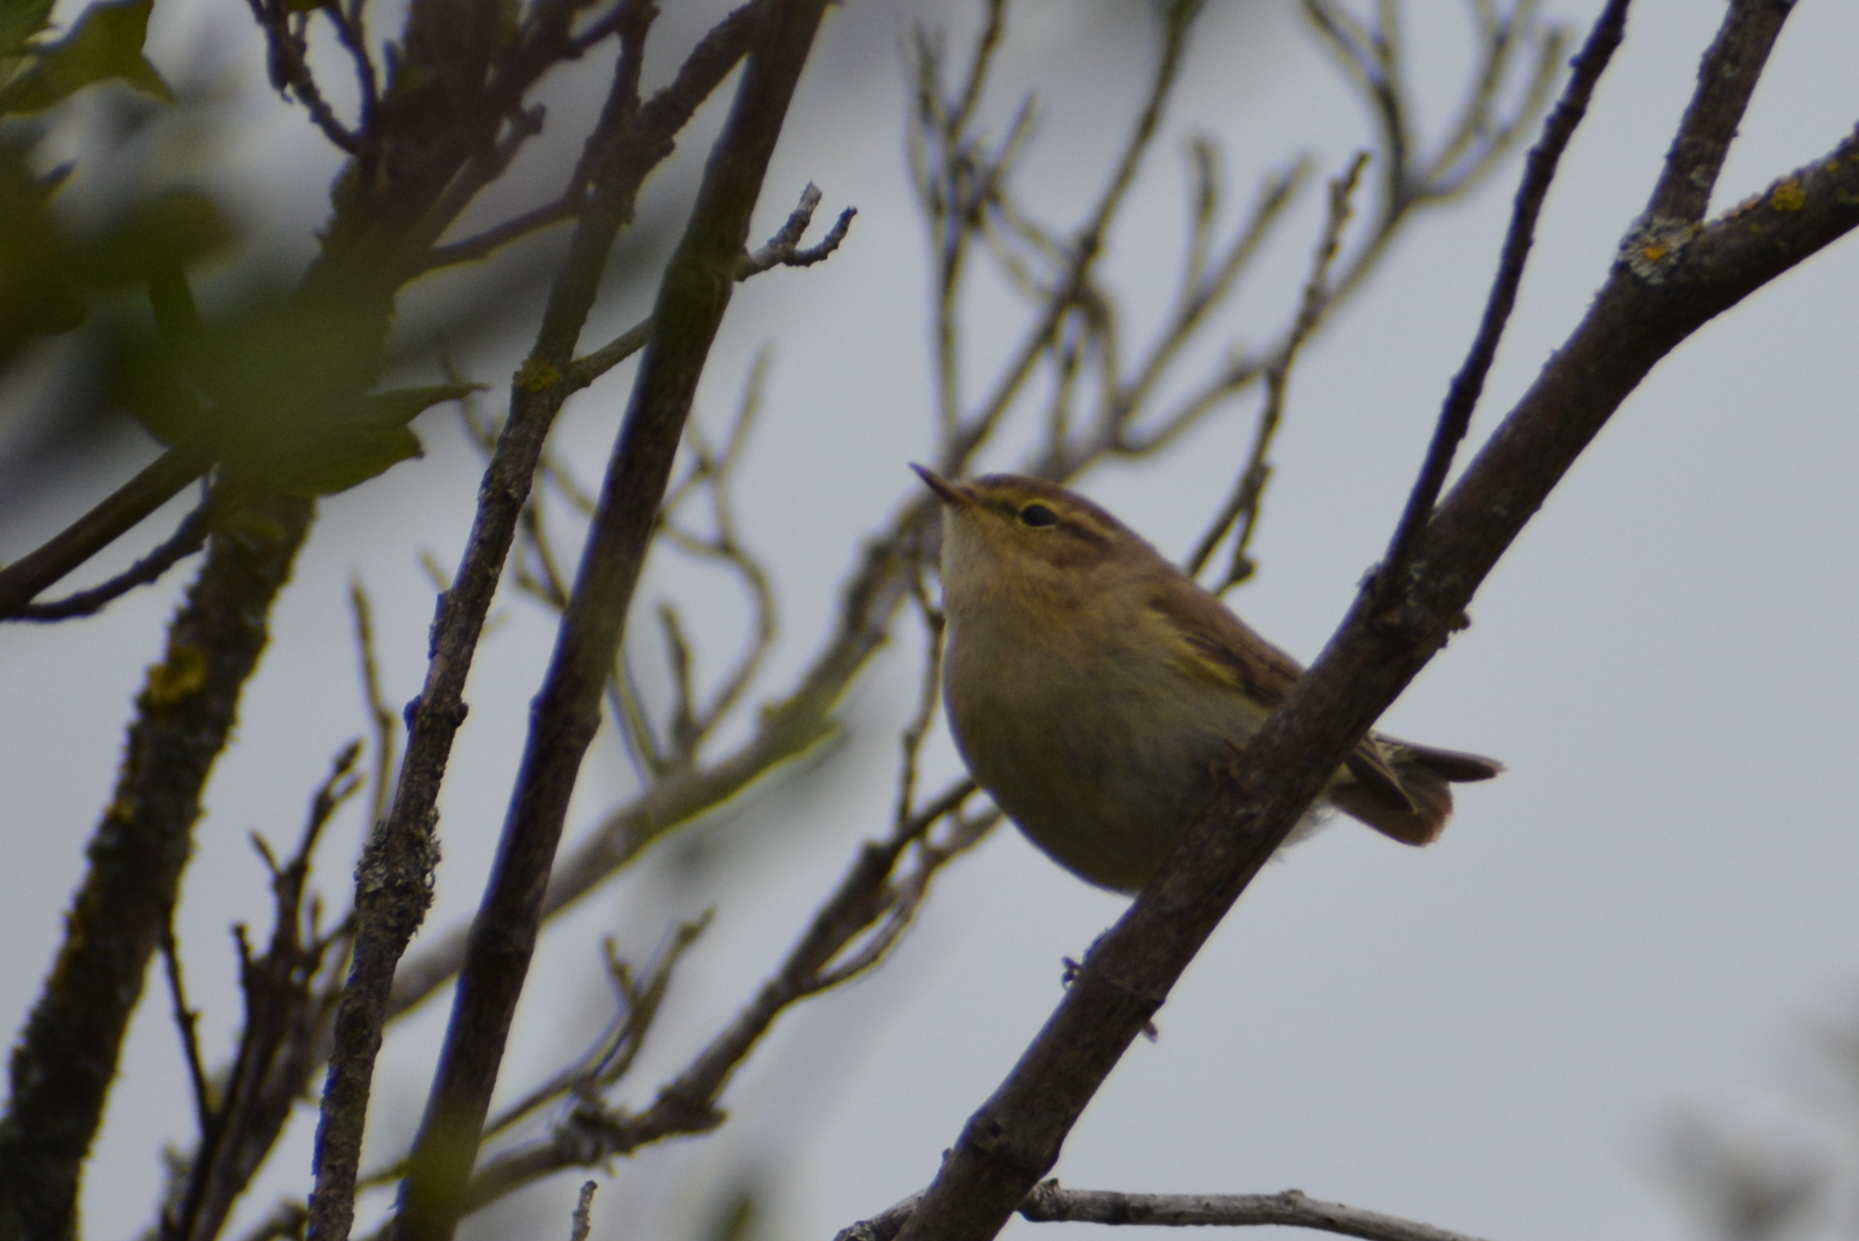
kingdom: Animalia
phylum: Chordata
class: Aves
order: Passeriformes
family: Phylloscopidae
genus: Phylloscopus
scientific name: Phylloscopus collybita
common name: Common chiffchaff
